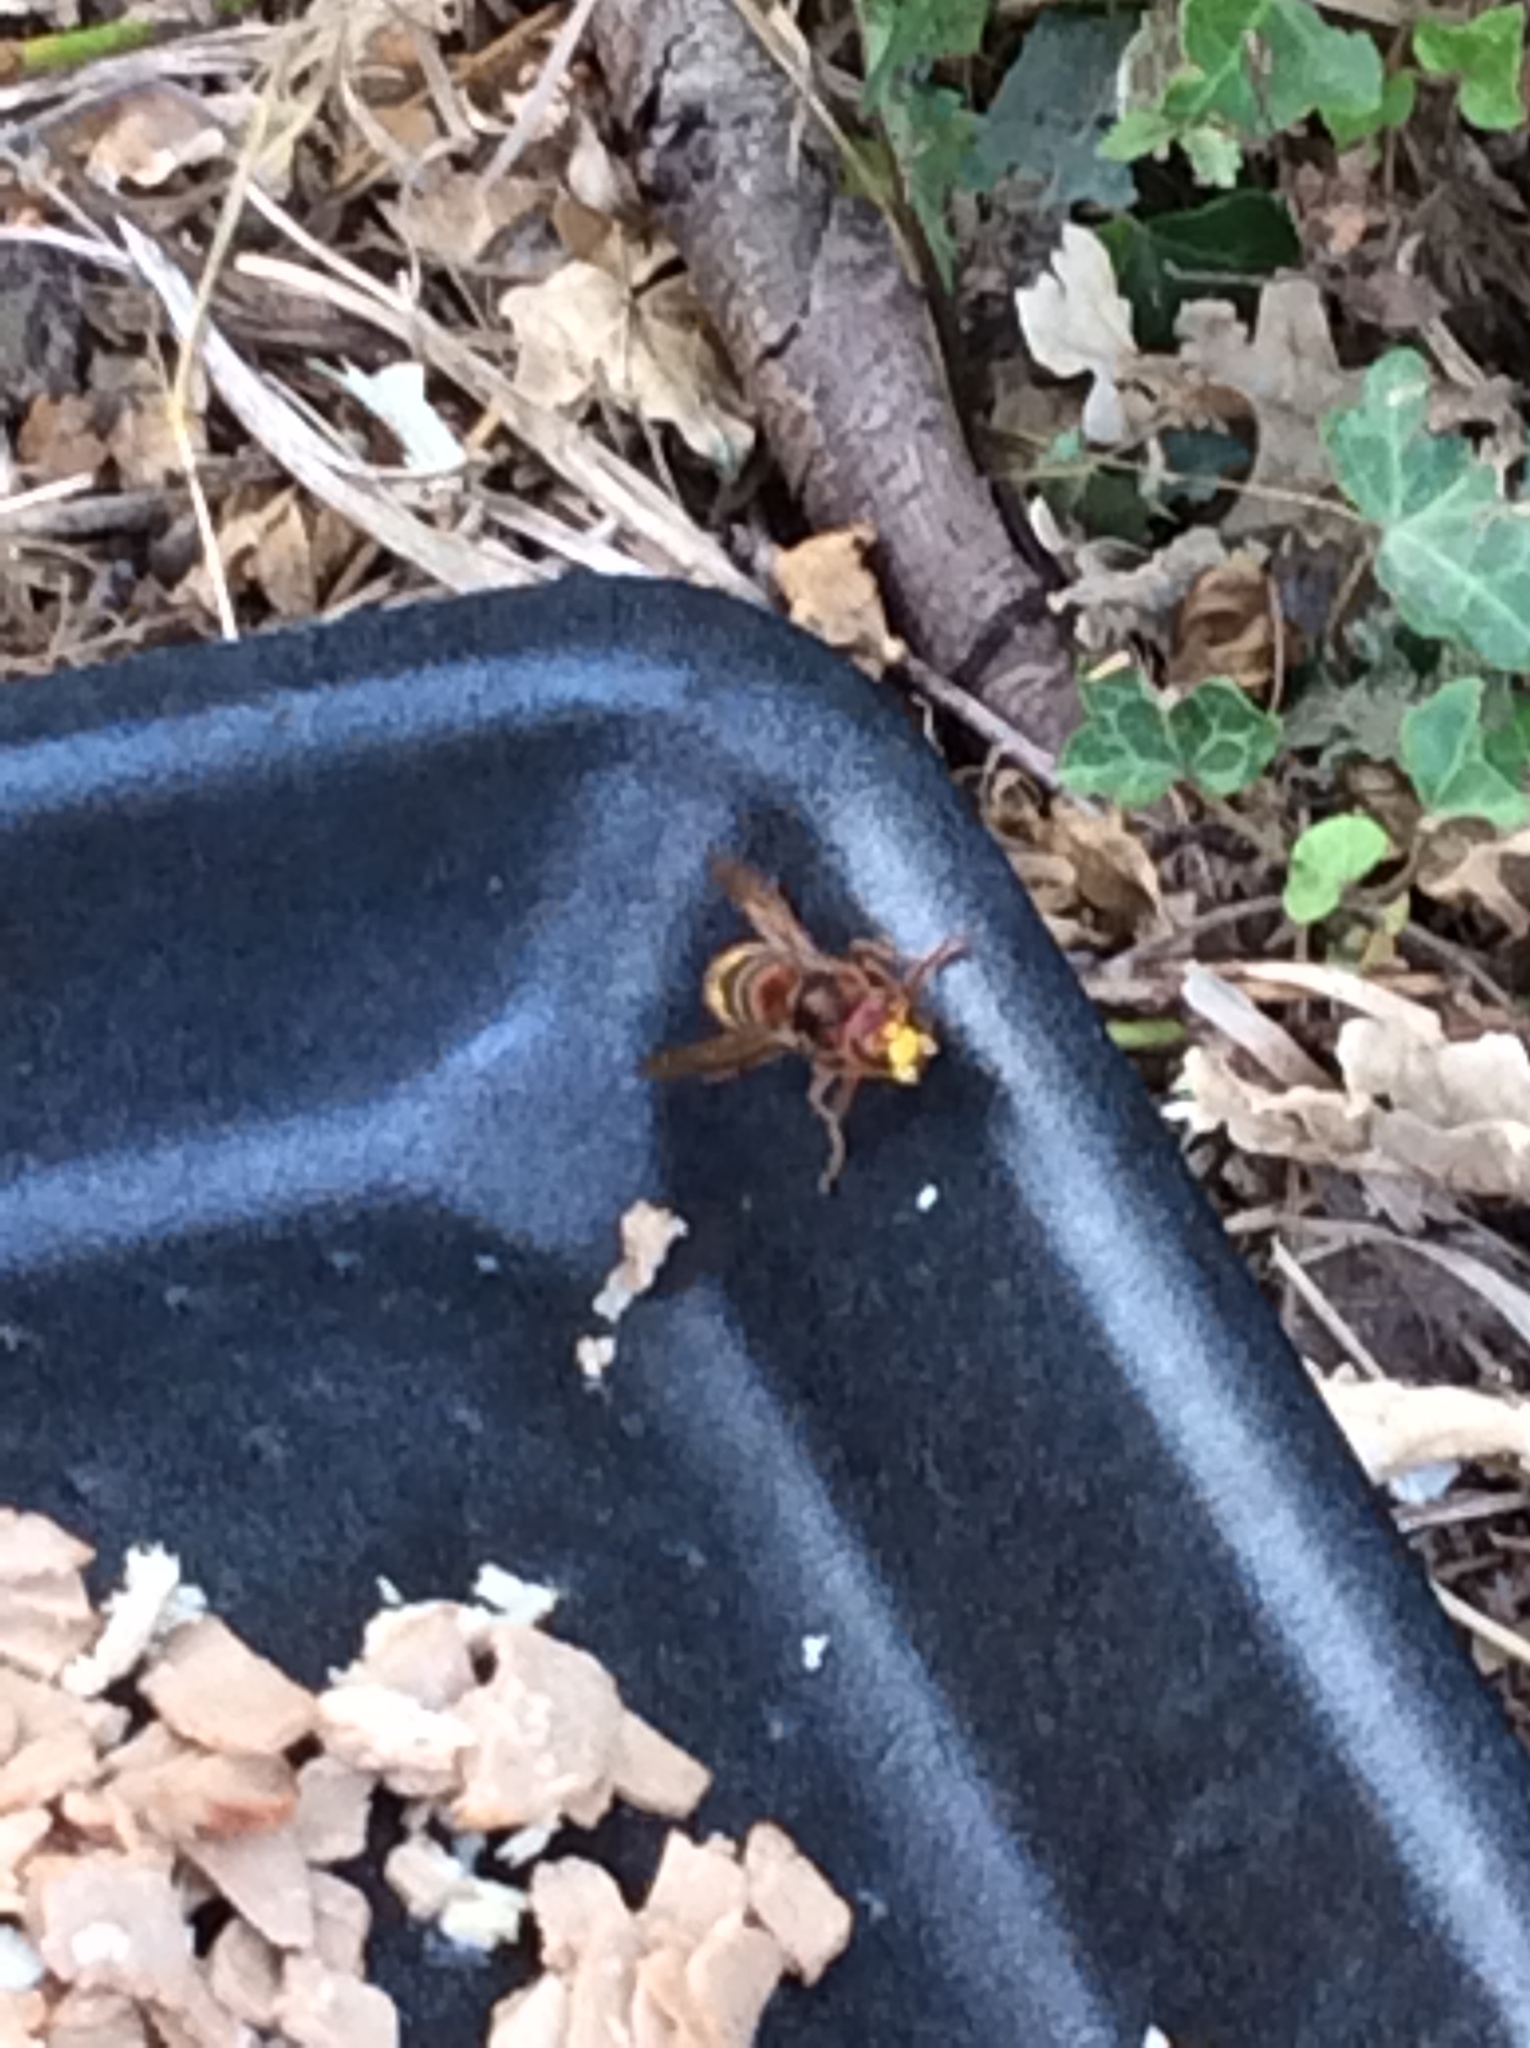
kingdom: Animalia
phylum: Arthropoda
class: Insecta
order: Hymenoptera
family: Vespidae
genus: Vespa
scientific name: Vespa crabro
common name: Hornet
